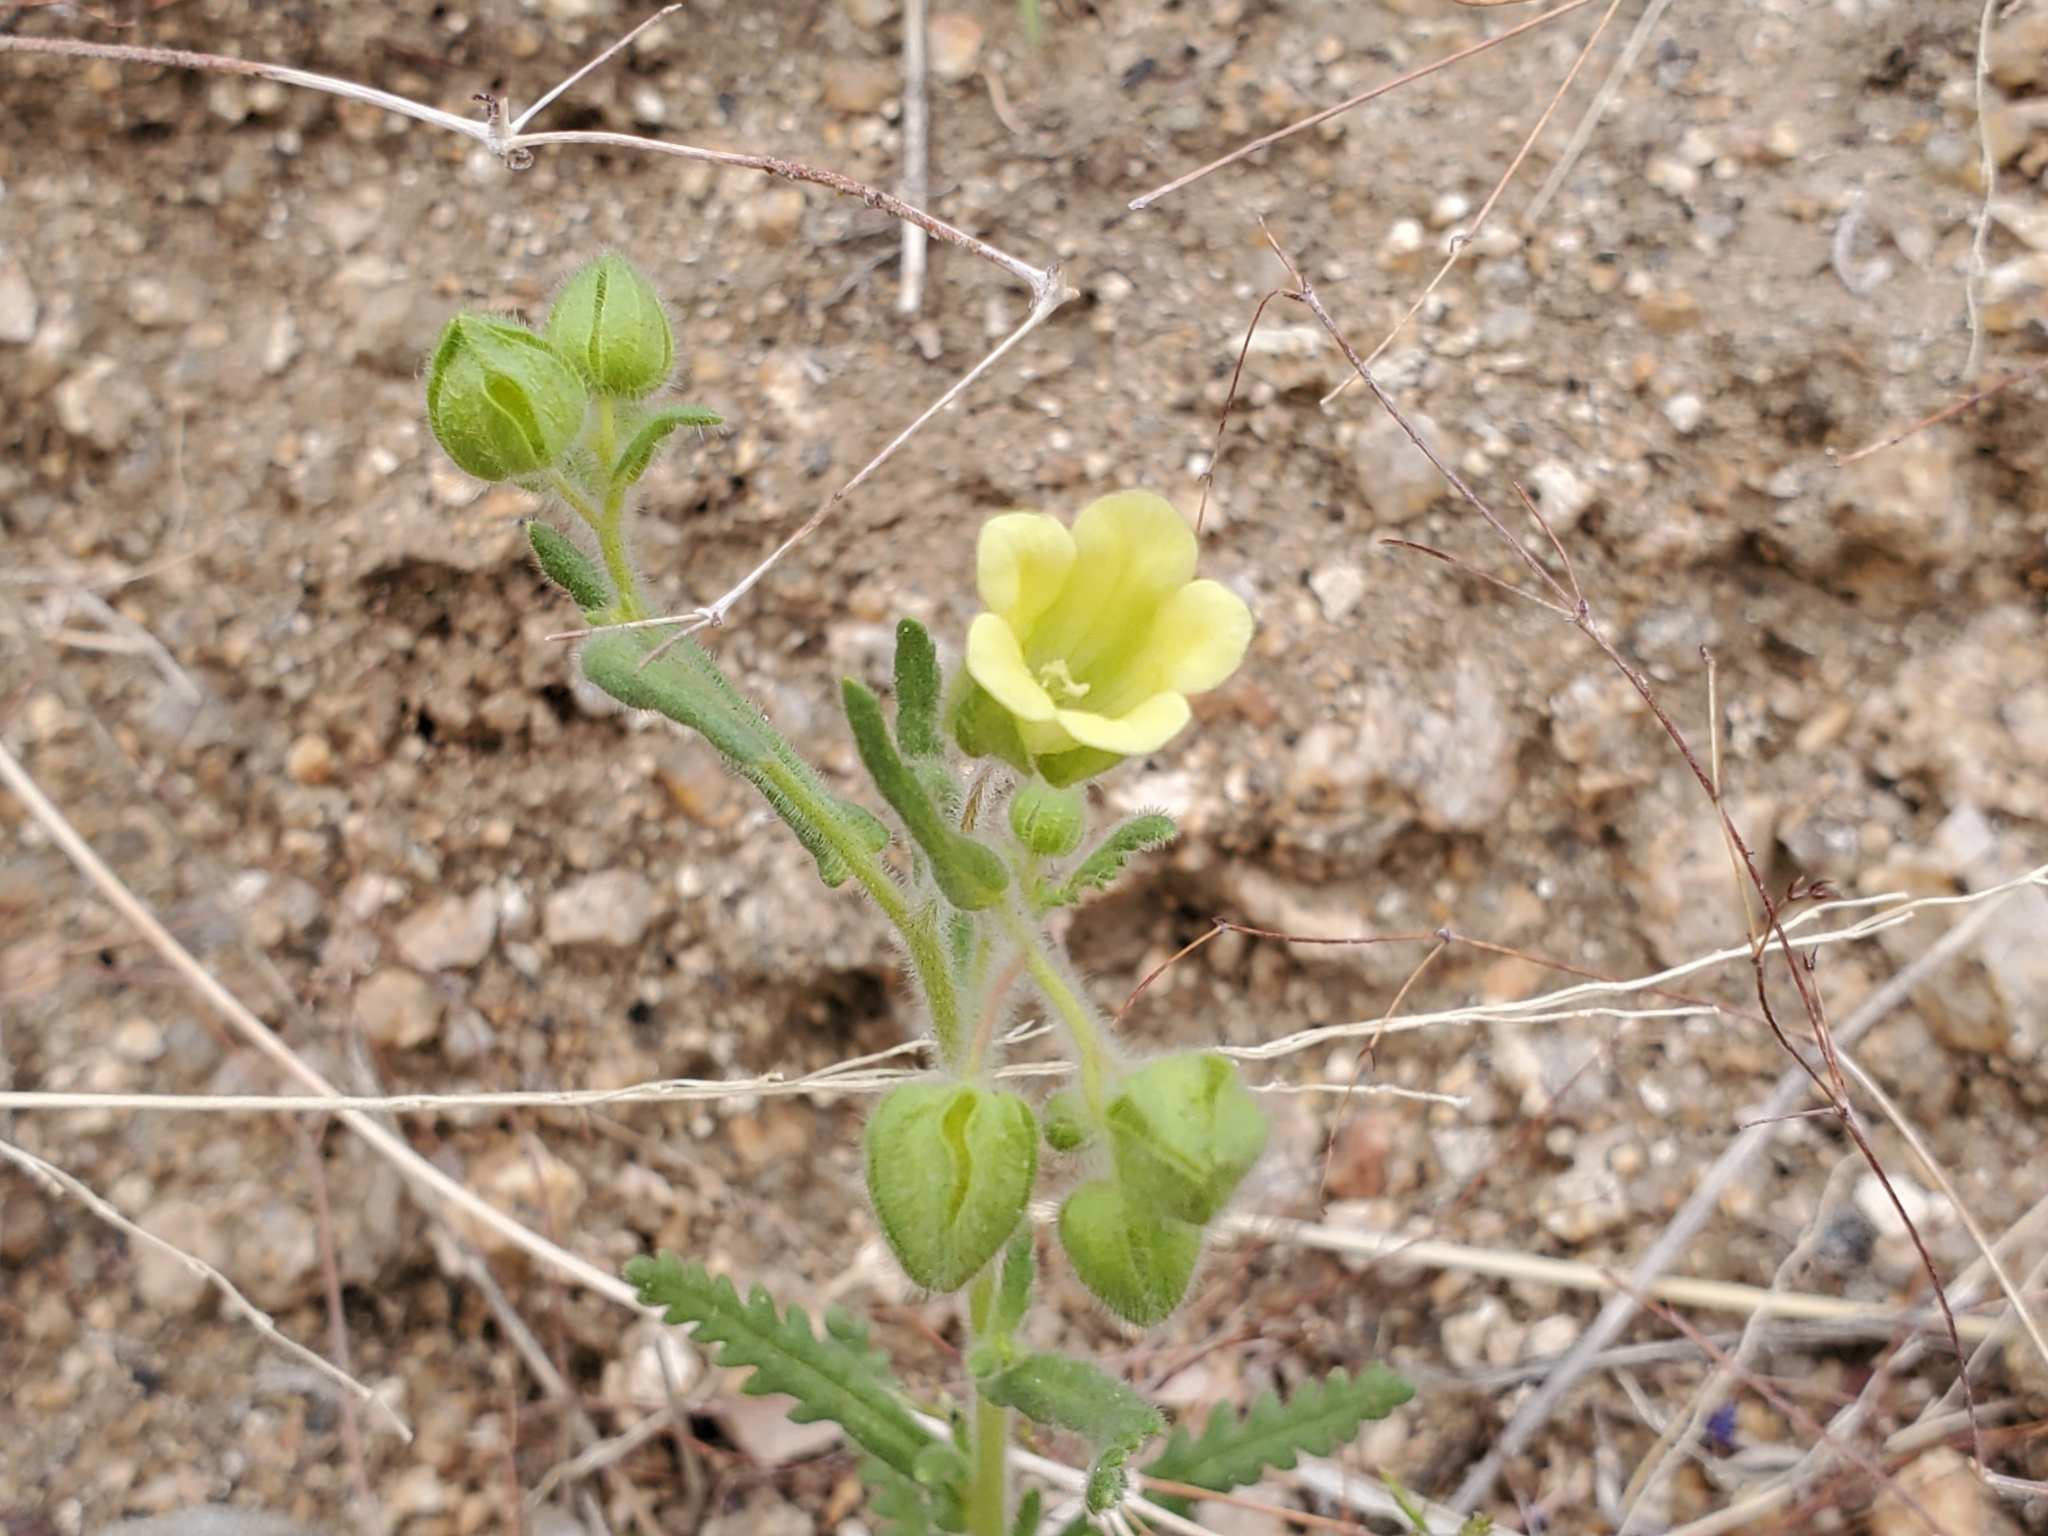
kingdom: Plantae
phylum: Tracheophyta
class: Magnoliopsida
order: Boraginales
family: Hydrophyllaceae
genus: Emmenanthe
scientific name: Emmenanthe penduliflora
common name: Whispering-bells
